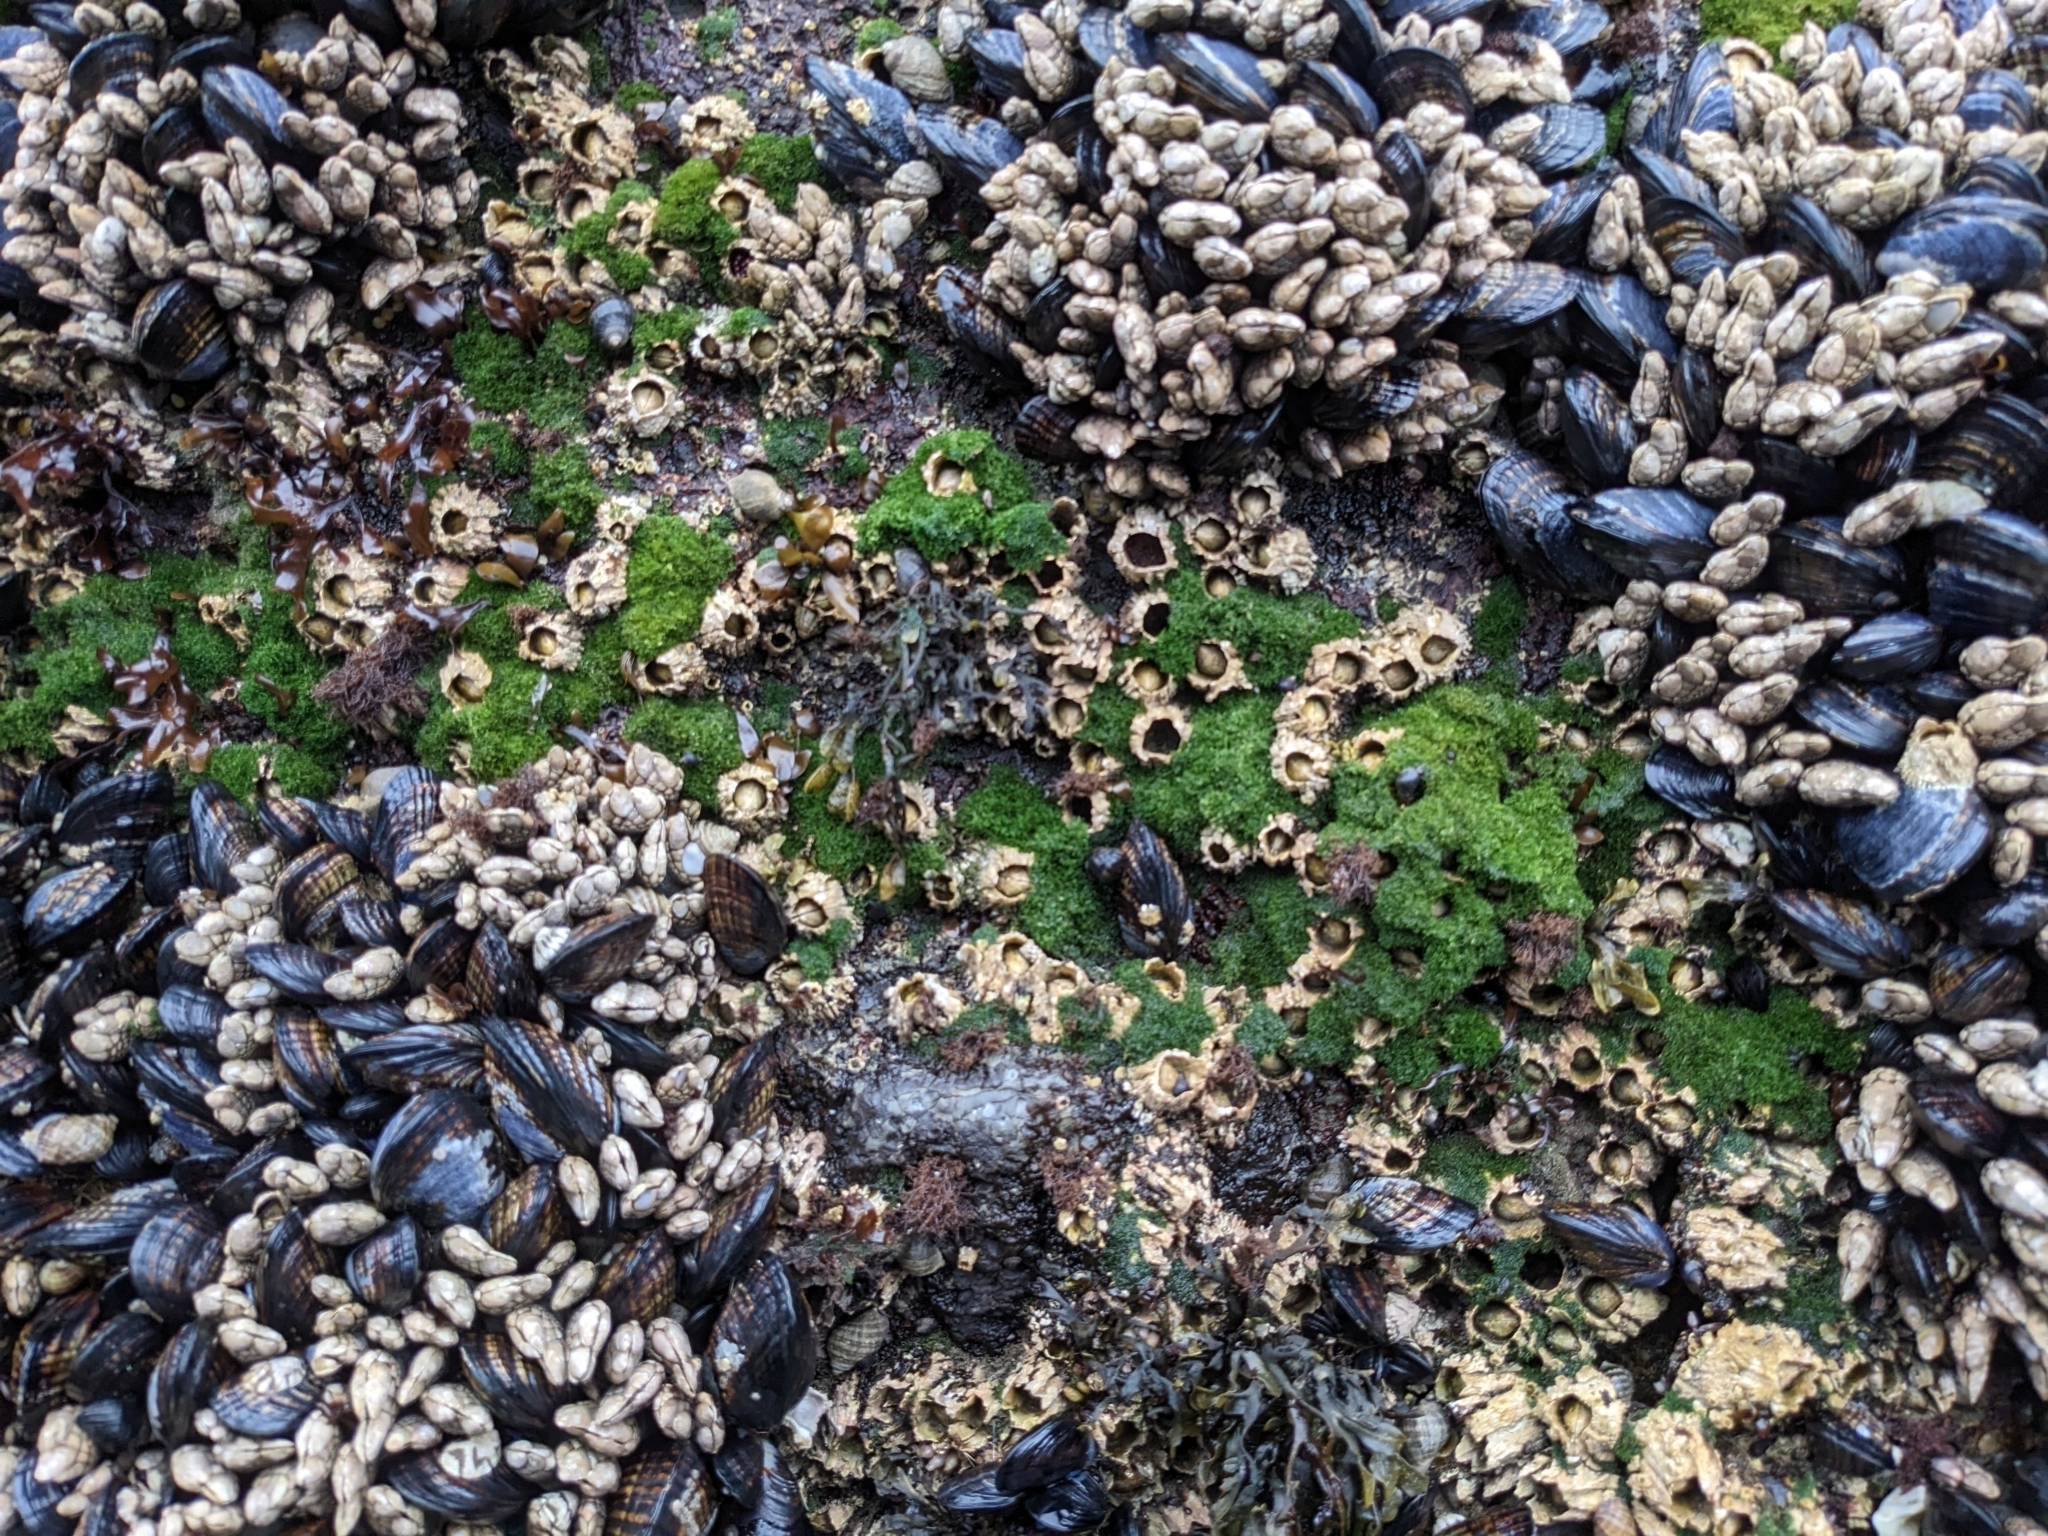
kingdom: Animalia
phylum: Arthropoda
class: Maxillopoda
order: Sessilia
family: Archaeobalanidae
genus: Semibalanus
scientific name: Semibalanus cariosus
